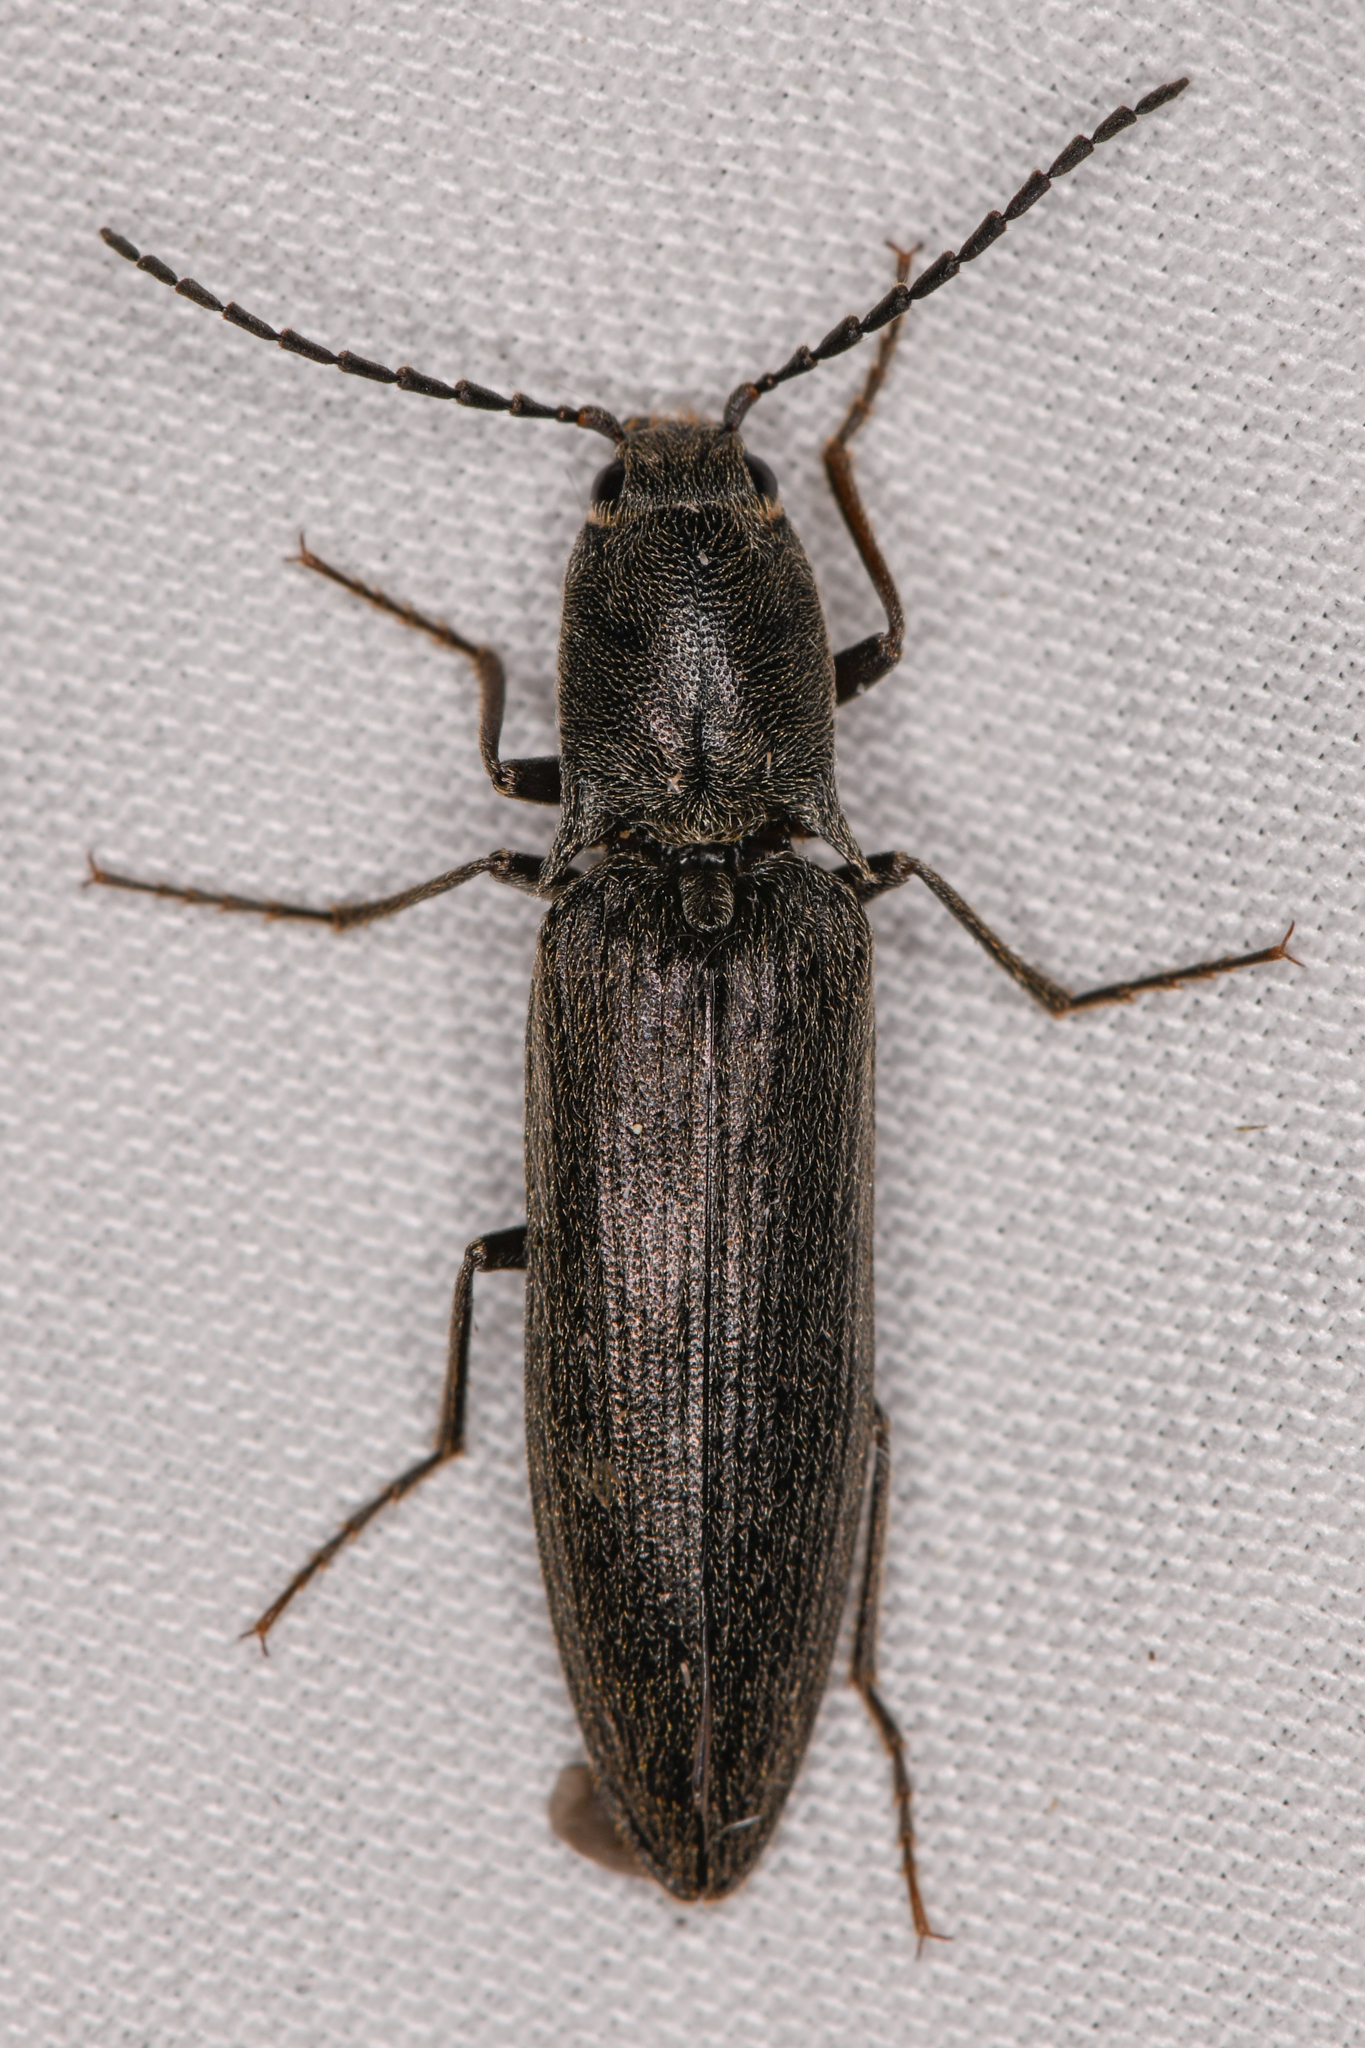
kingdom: Animalia
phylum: Arthropoda
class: Insecta
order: Coleoptera
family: Elateridae
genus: Proludius
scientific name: Proludius
